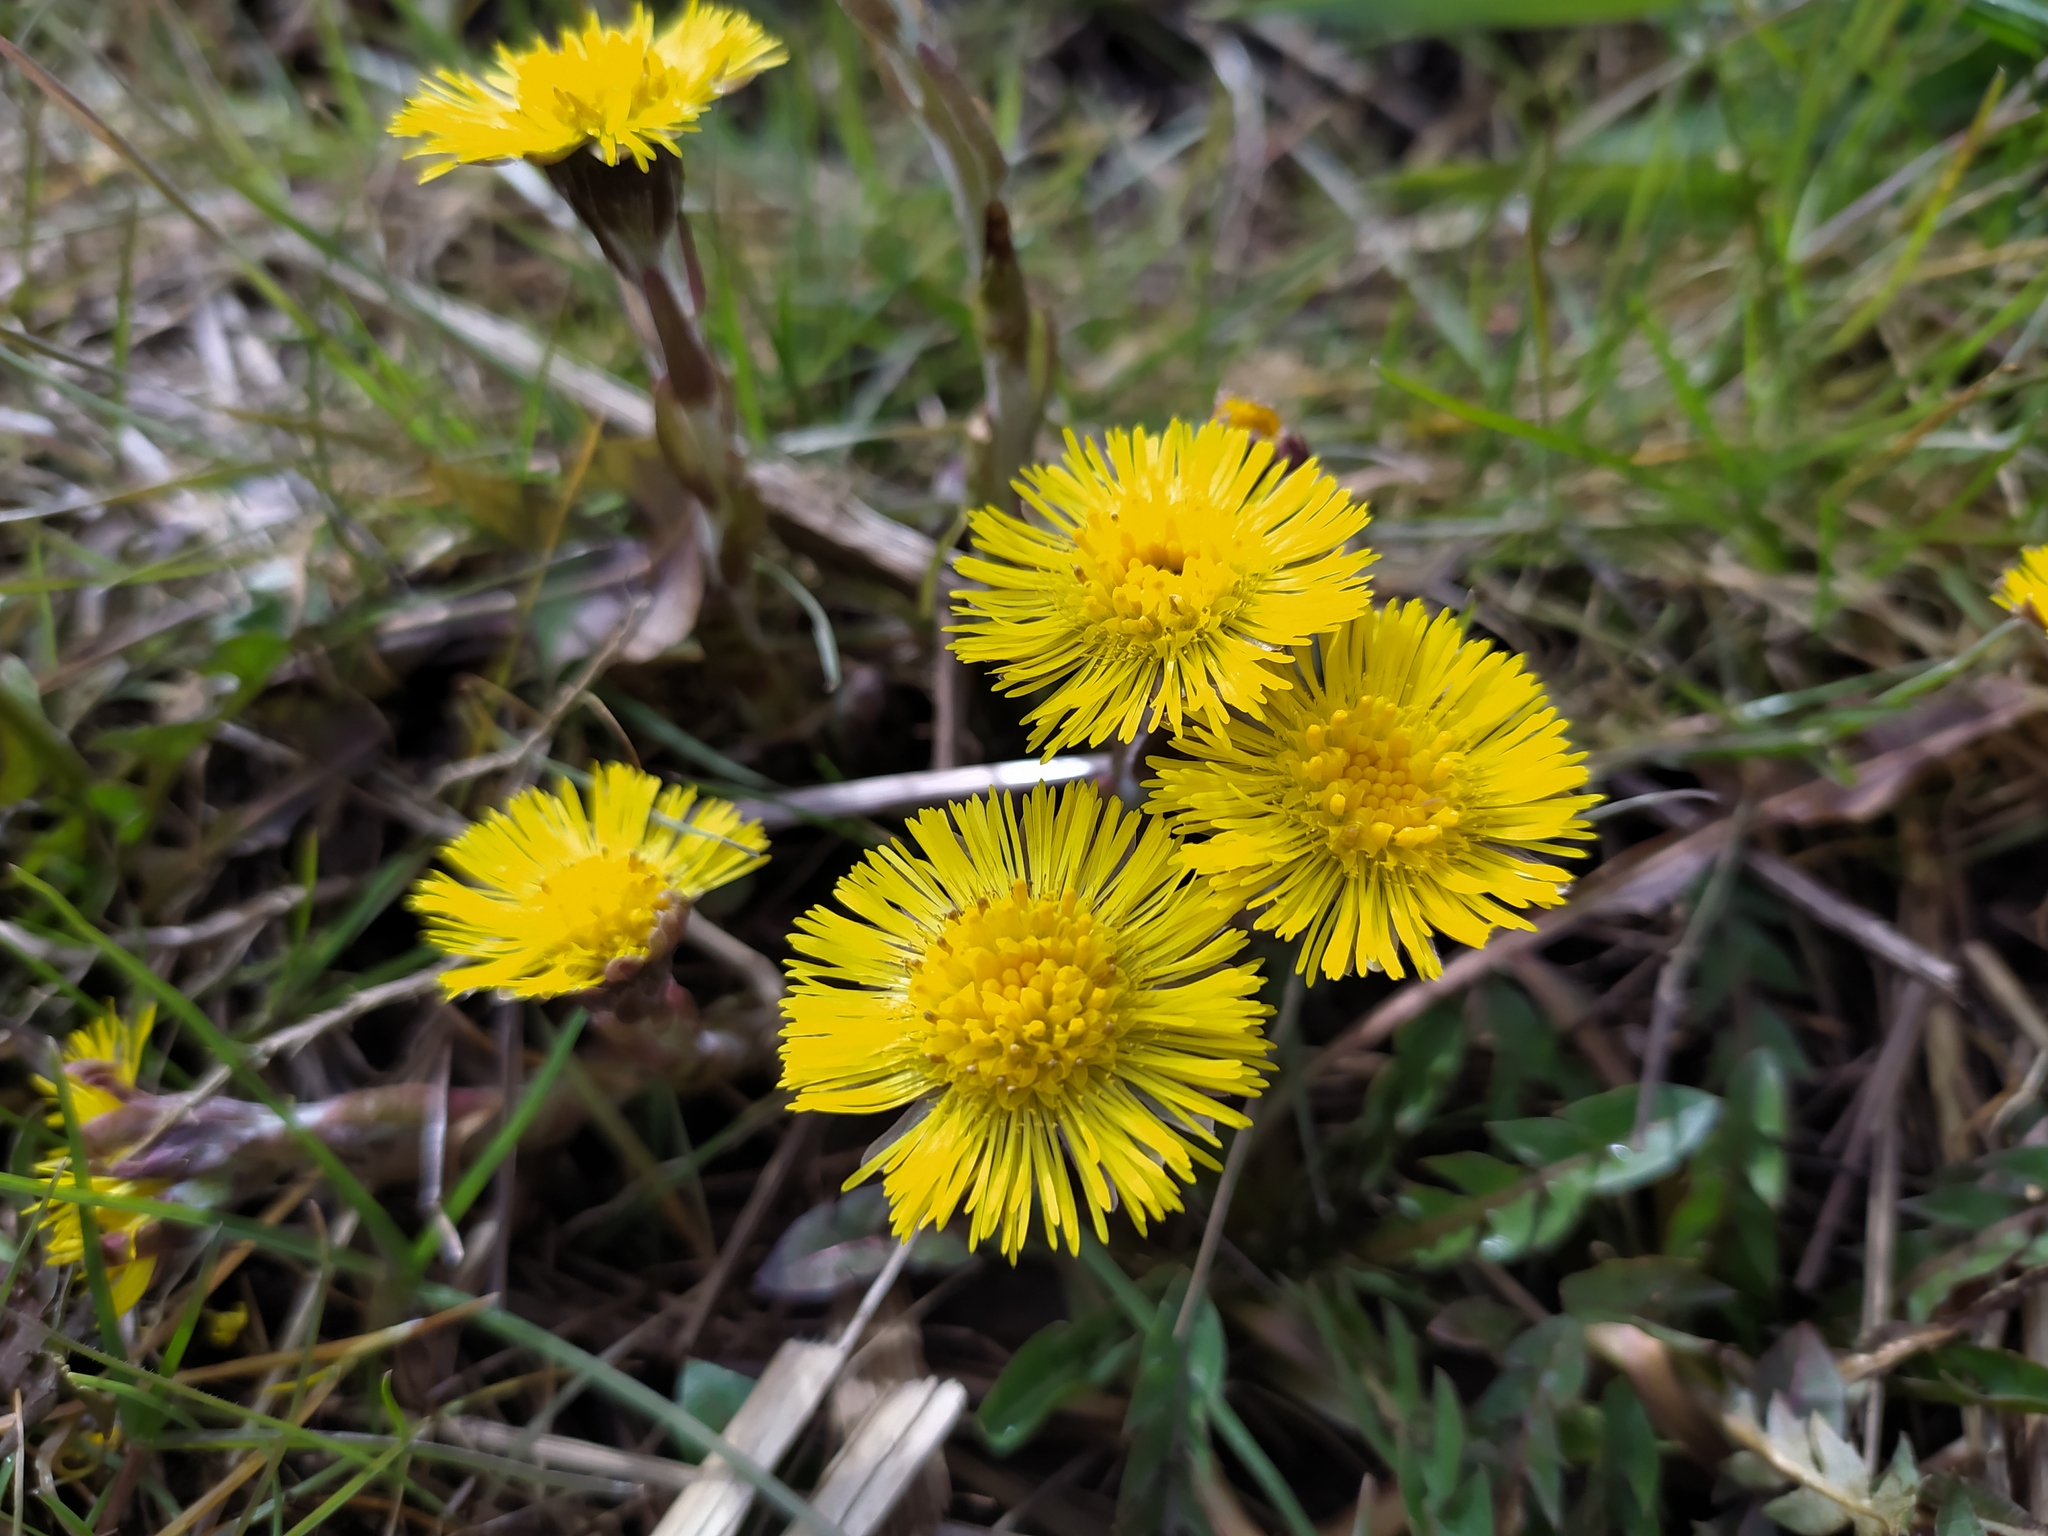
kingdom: Plantae
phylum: Tracheophyta
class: Magnoliopsida
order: Asterales
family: Asteraceae
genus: Tussilago
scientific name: Tussilago farfara
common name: Coltsfoot
